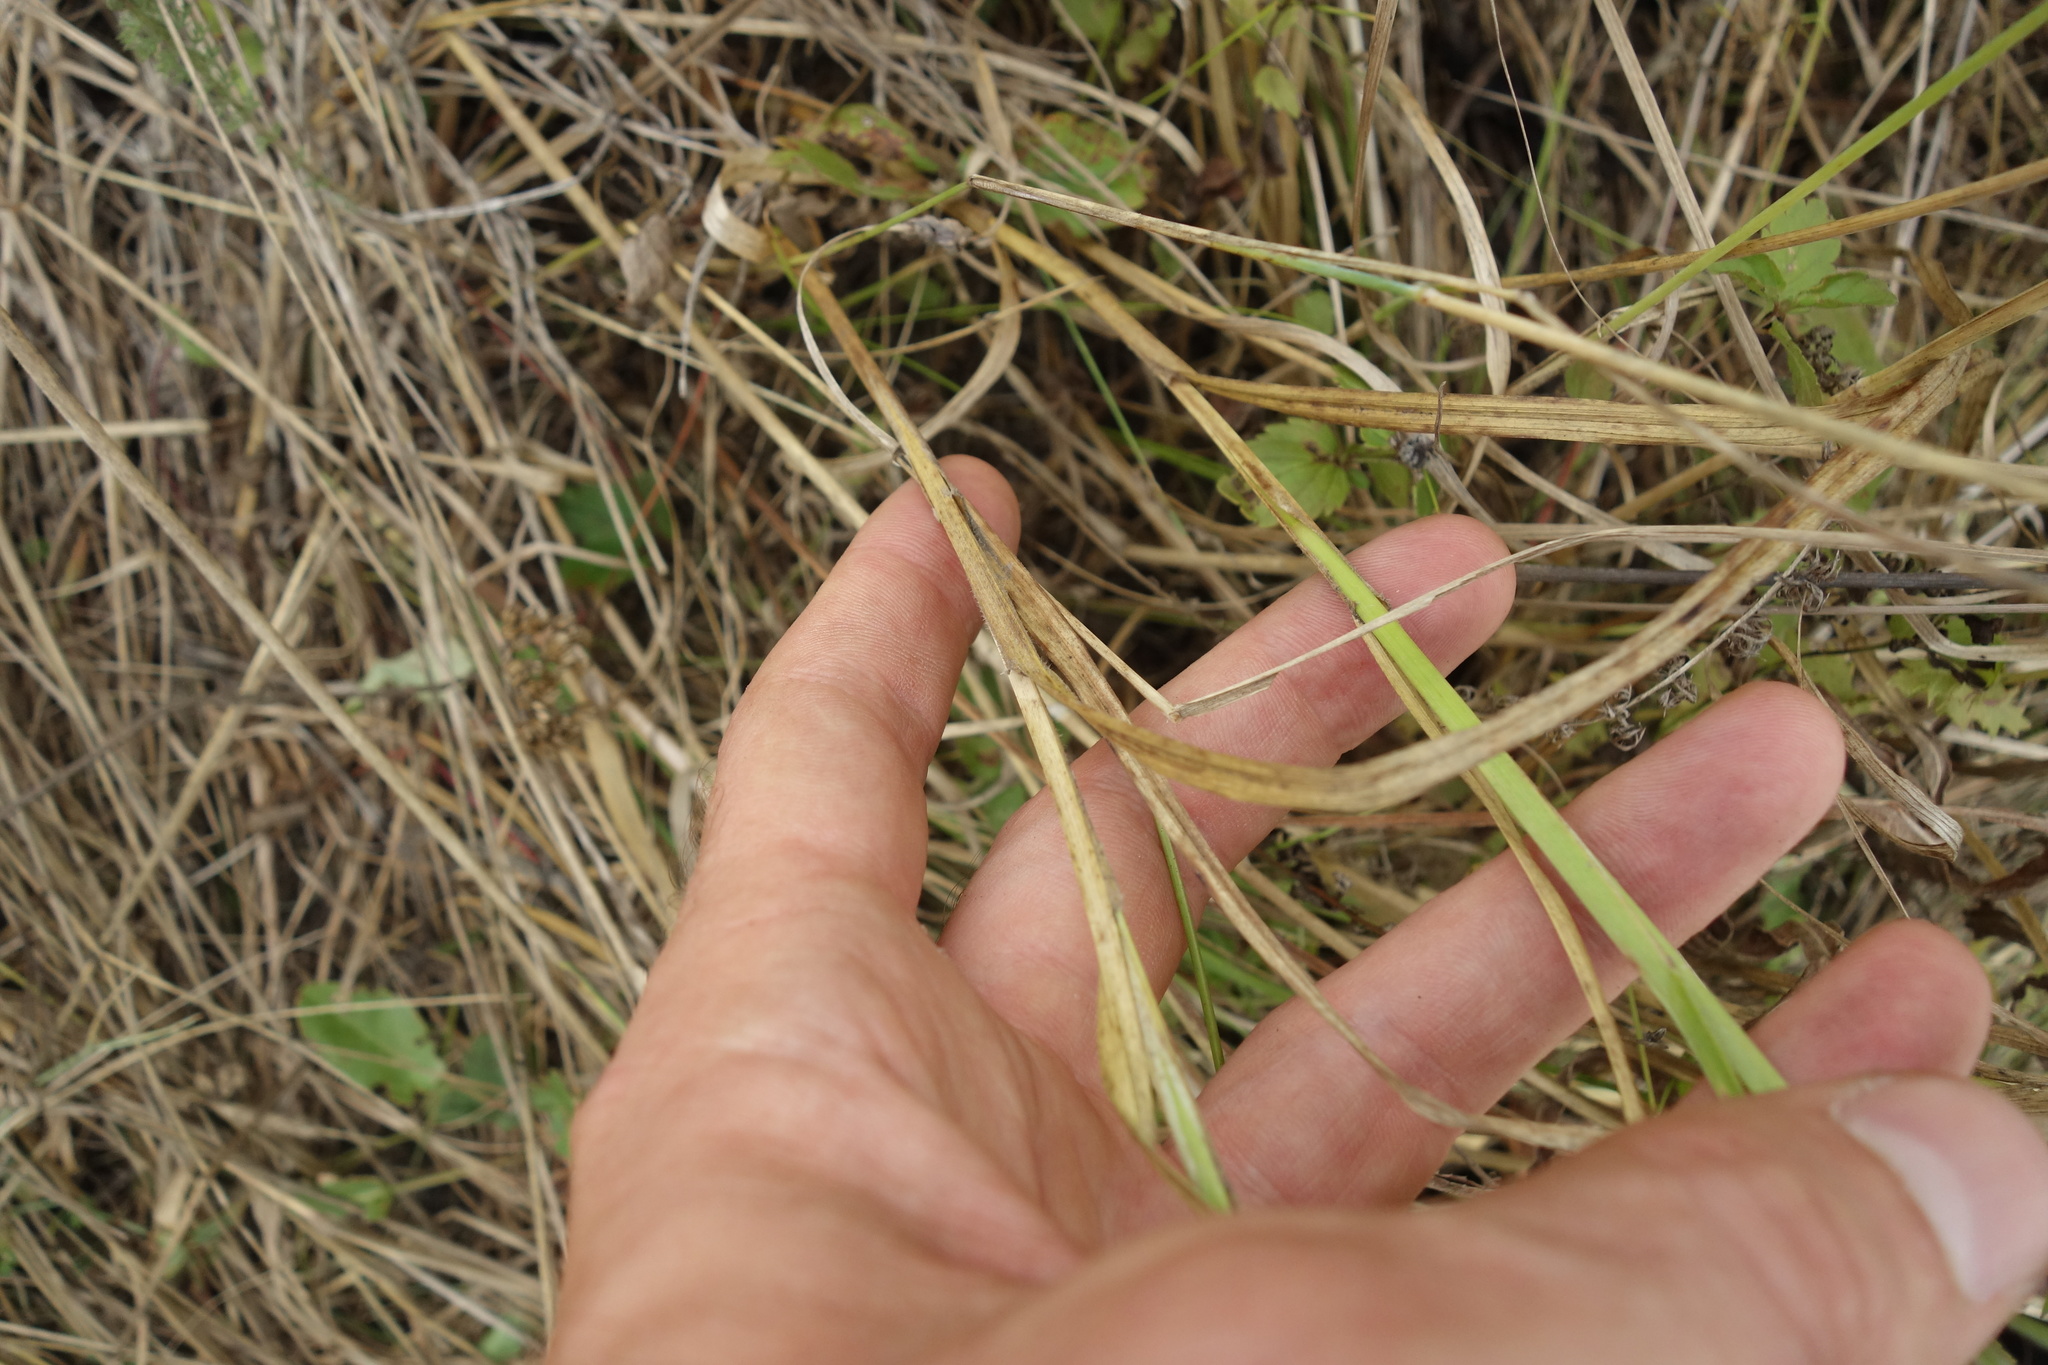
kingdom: Plantae
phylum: Tracheophyta
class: Liliopsida
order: Poales
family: Poaceae
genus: Thinopyrum
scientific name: Thinopyrum intermedium
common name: Intermediate wheatgrass
